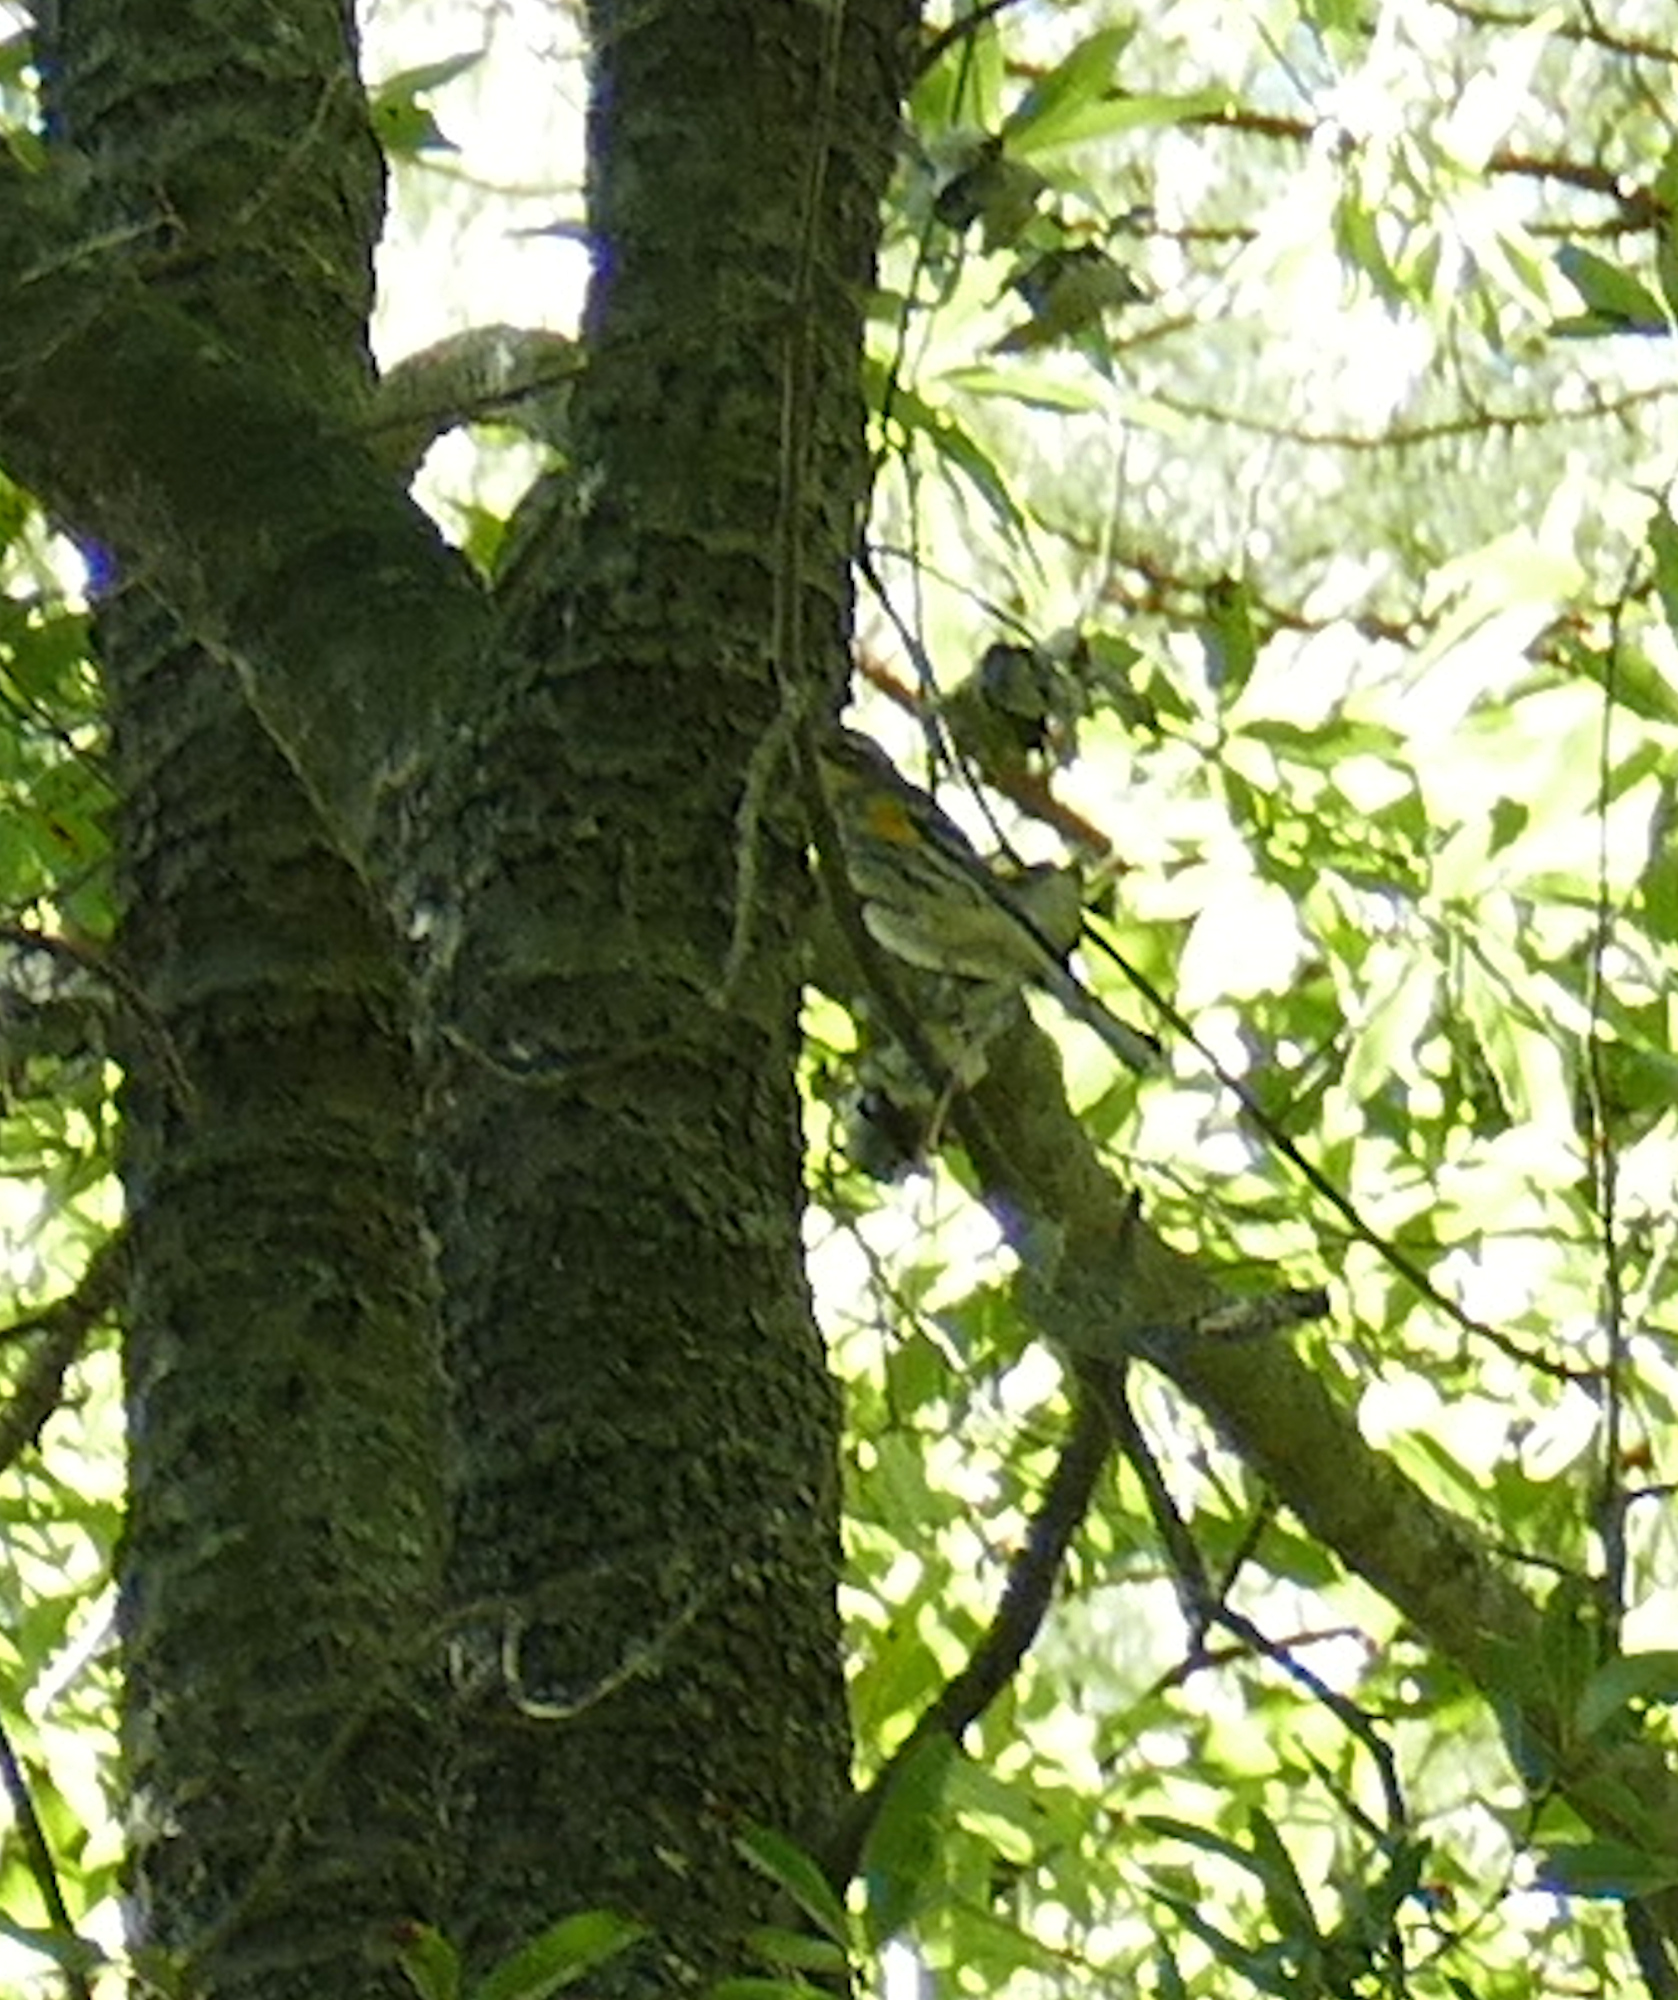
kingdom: Animalia
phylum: Chordata
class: Aves
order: Passeriformes
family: Parulidae
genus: Setophaga
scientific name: Setophaga coronata
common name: Myrtle warbler
